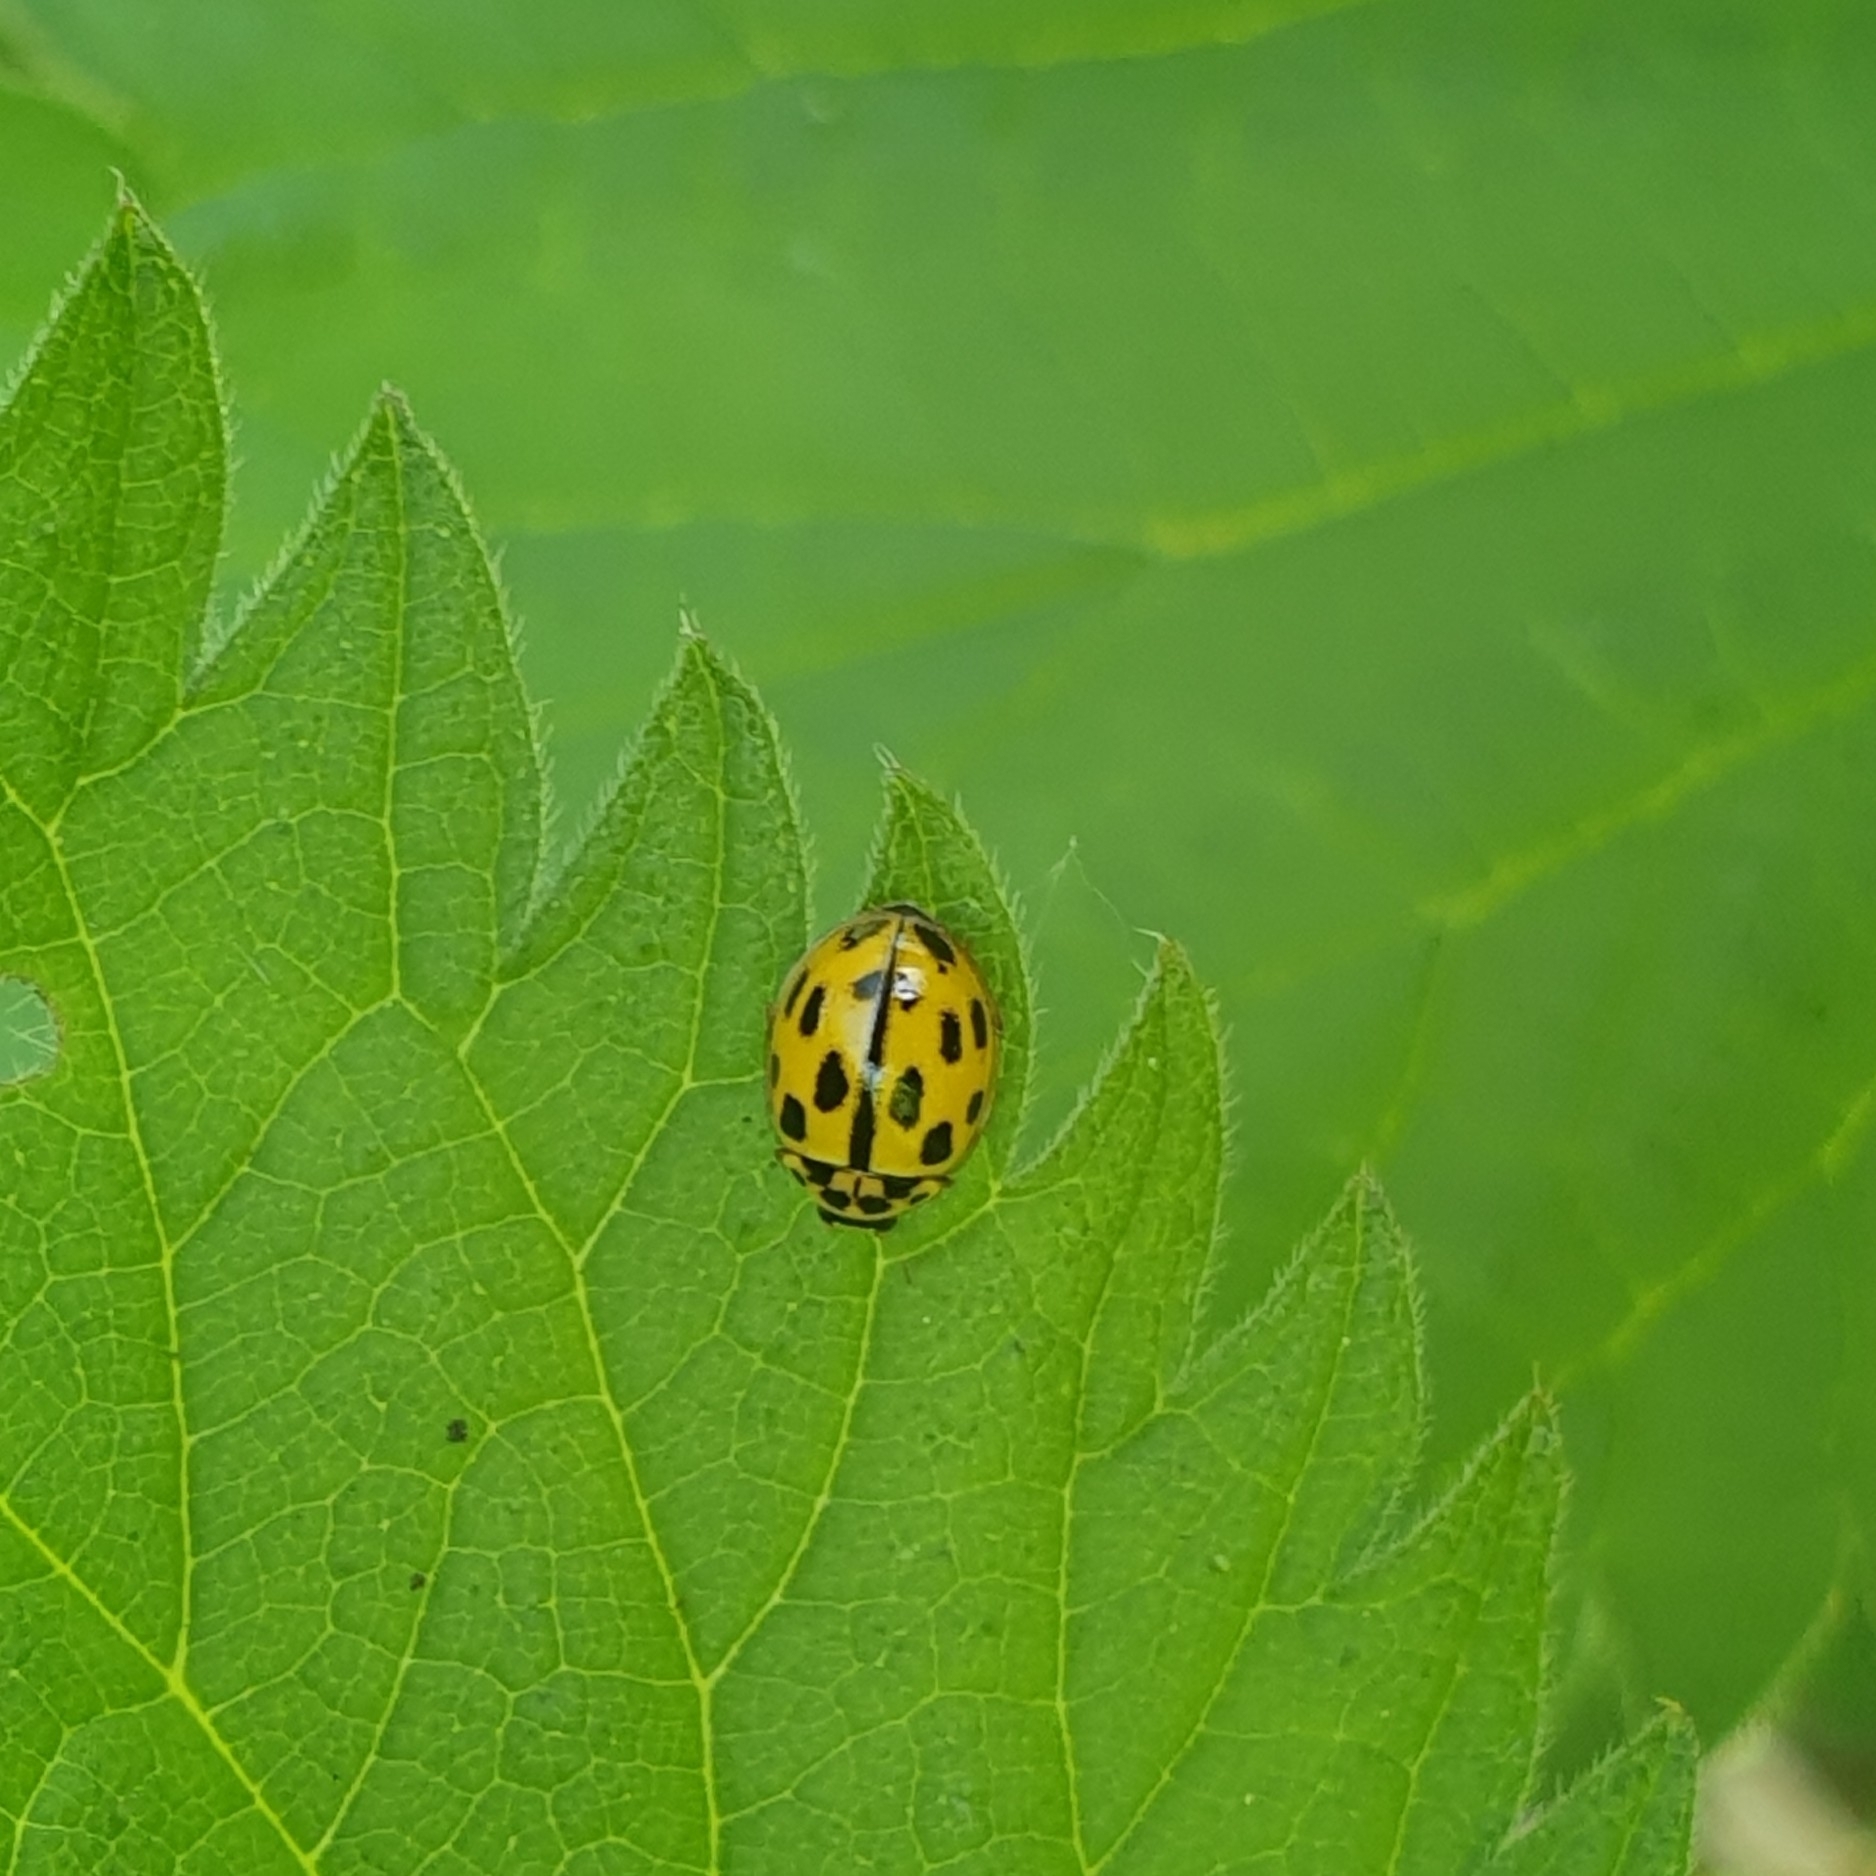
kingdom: Animalia
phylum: Arthropoda
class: Insecta
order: Coleoptera
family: Coccinellidae
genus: Propylaea
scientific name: Propylaea quatuordecimpunctata
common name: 14-spotted ladybird beetle
